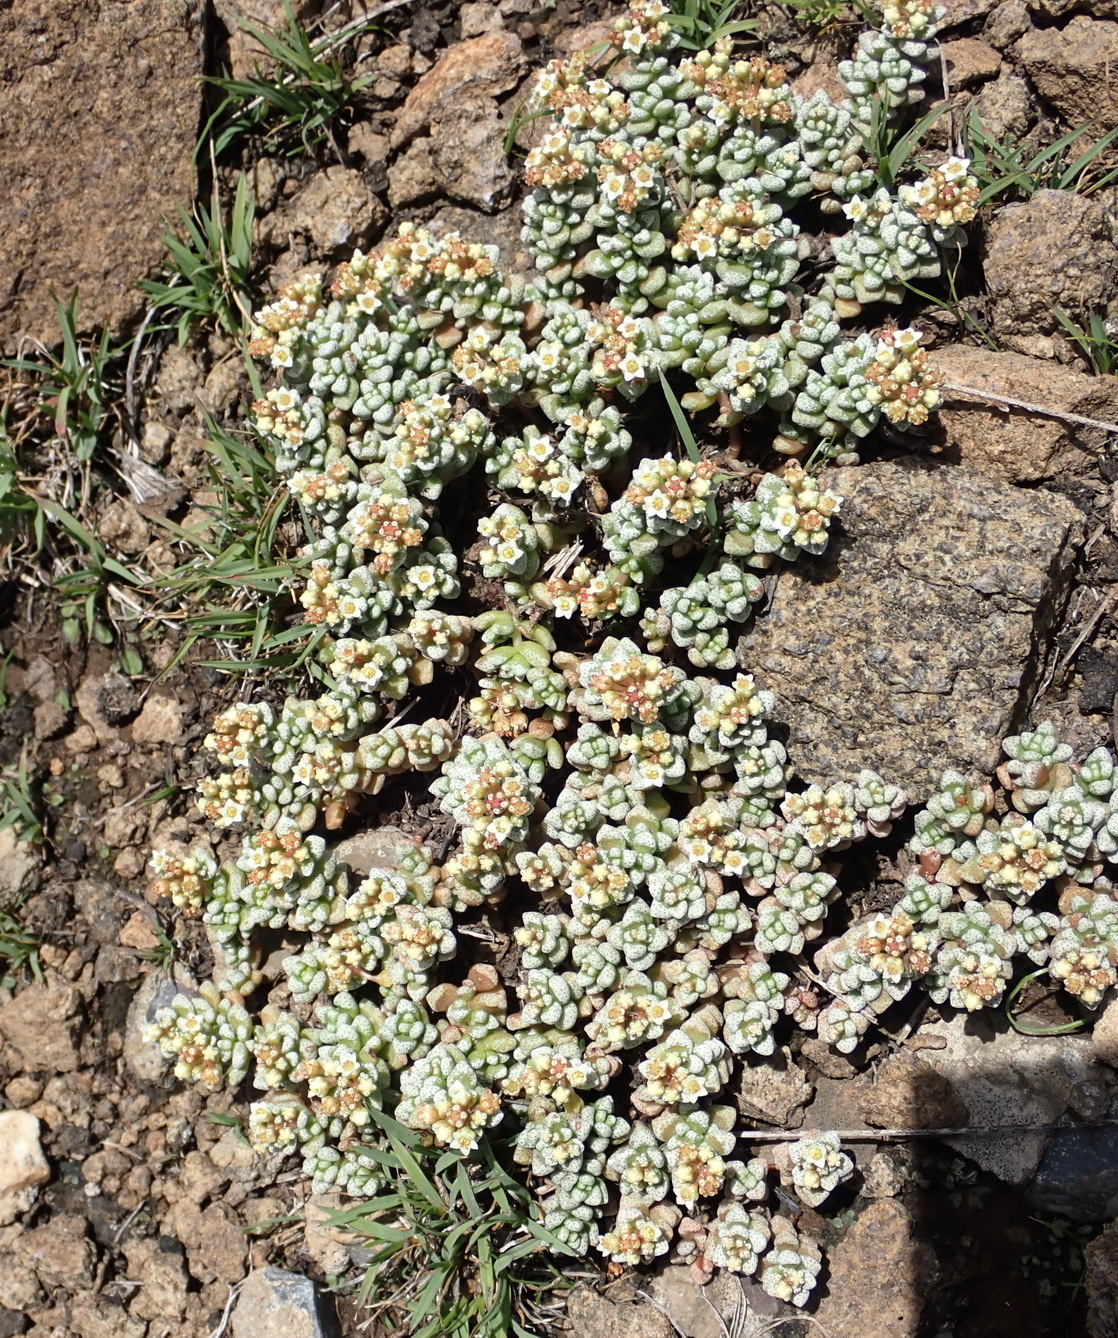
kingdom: Plantae
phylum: Tracheophyta
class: Magnoliopsida
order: Saxifragales
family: Crassulaceae
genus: Crassula
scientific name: Crassula corallina
